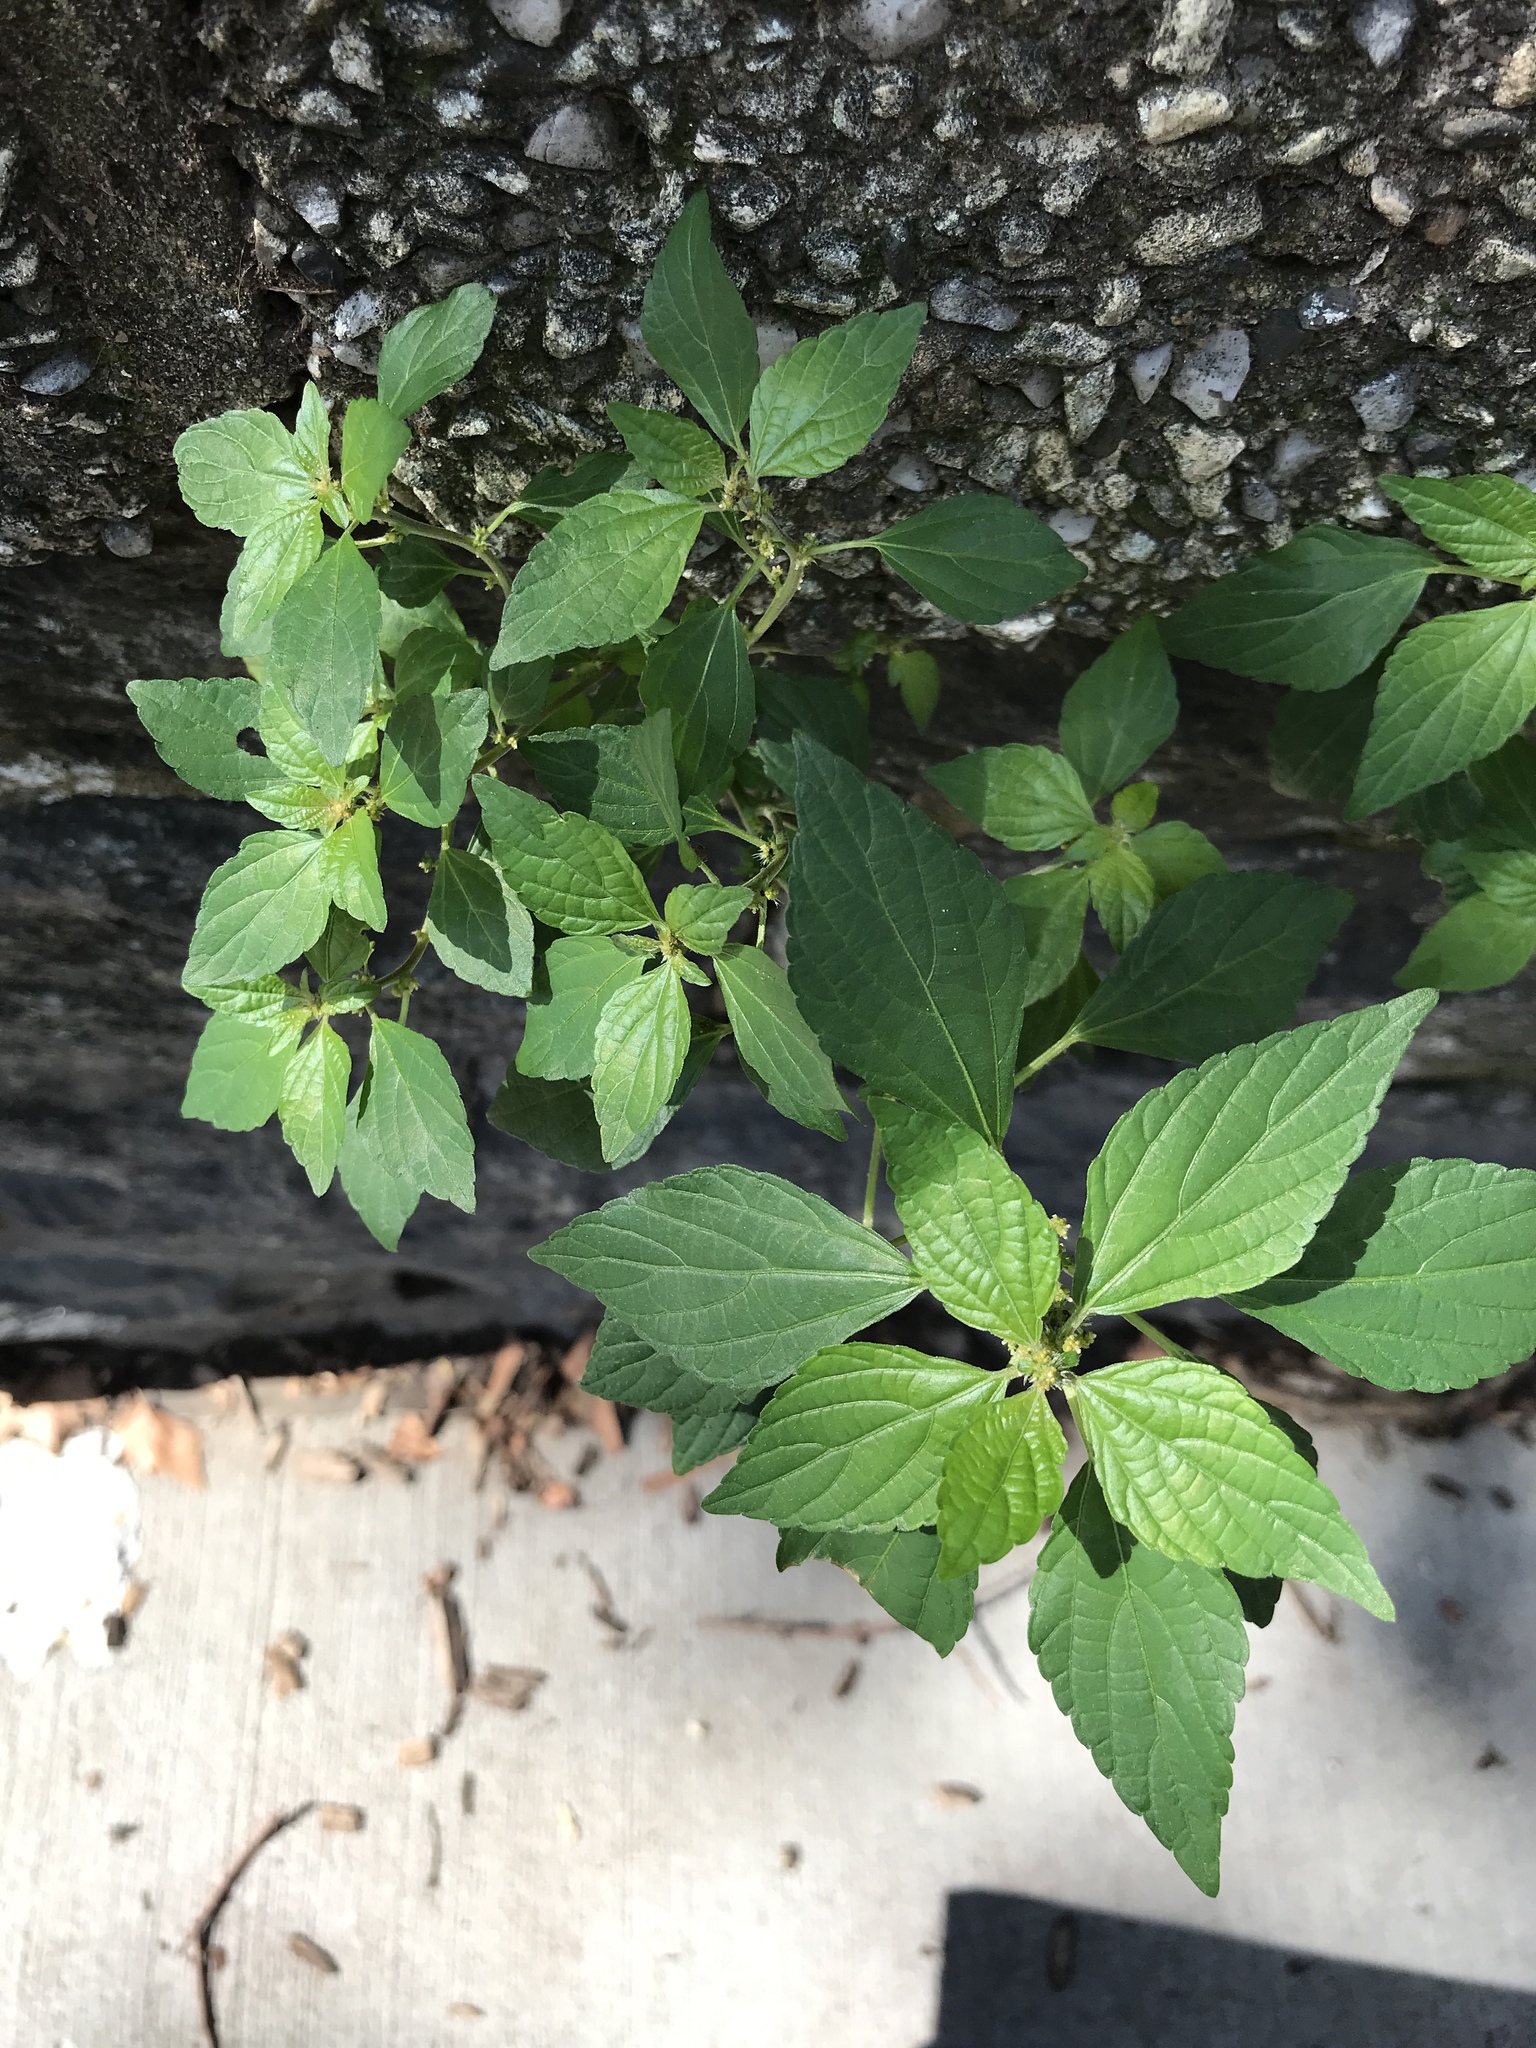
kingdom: Plantae
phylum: Tracheophyta
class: Magnoliopsida
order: Malpighiales
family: Euphorbiaceae
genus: Acalypha
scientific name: Acalypha rhomboidea
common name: Rhombic copperleaf
